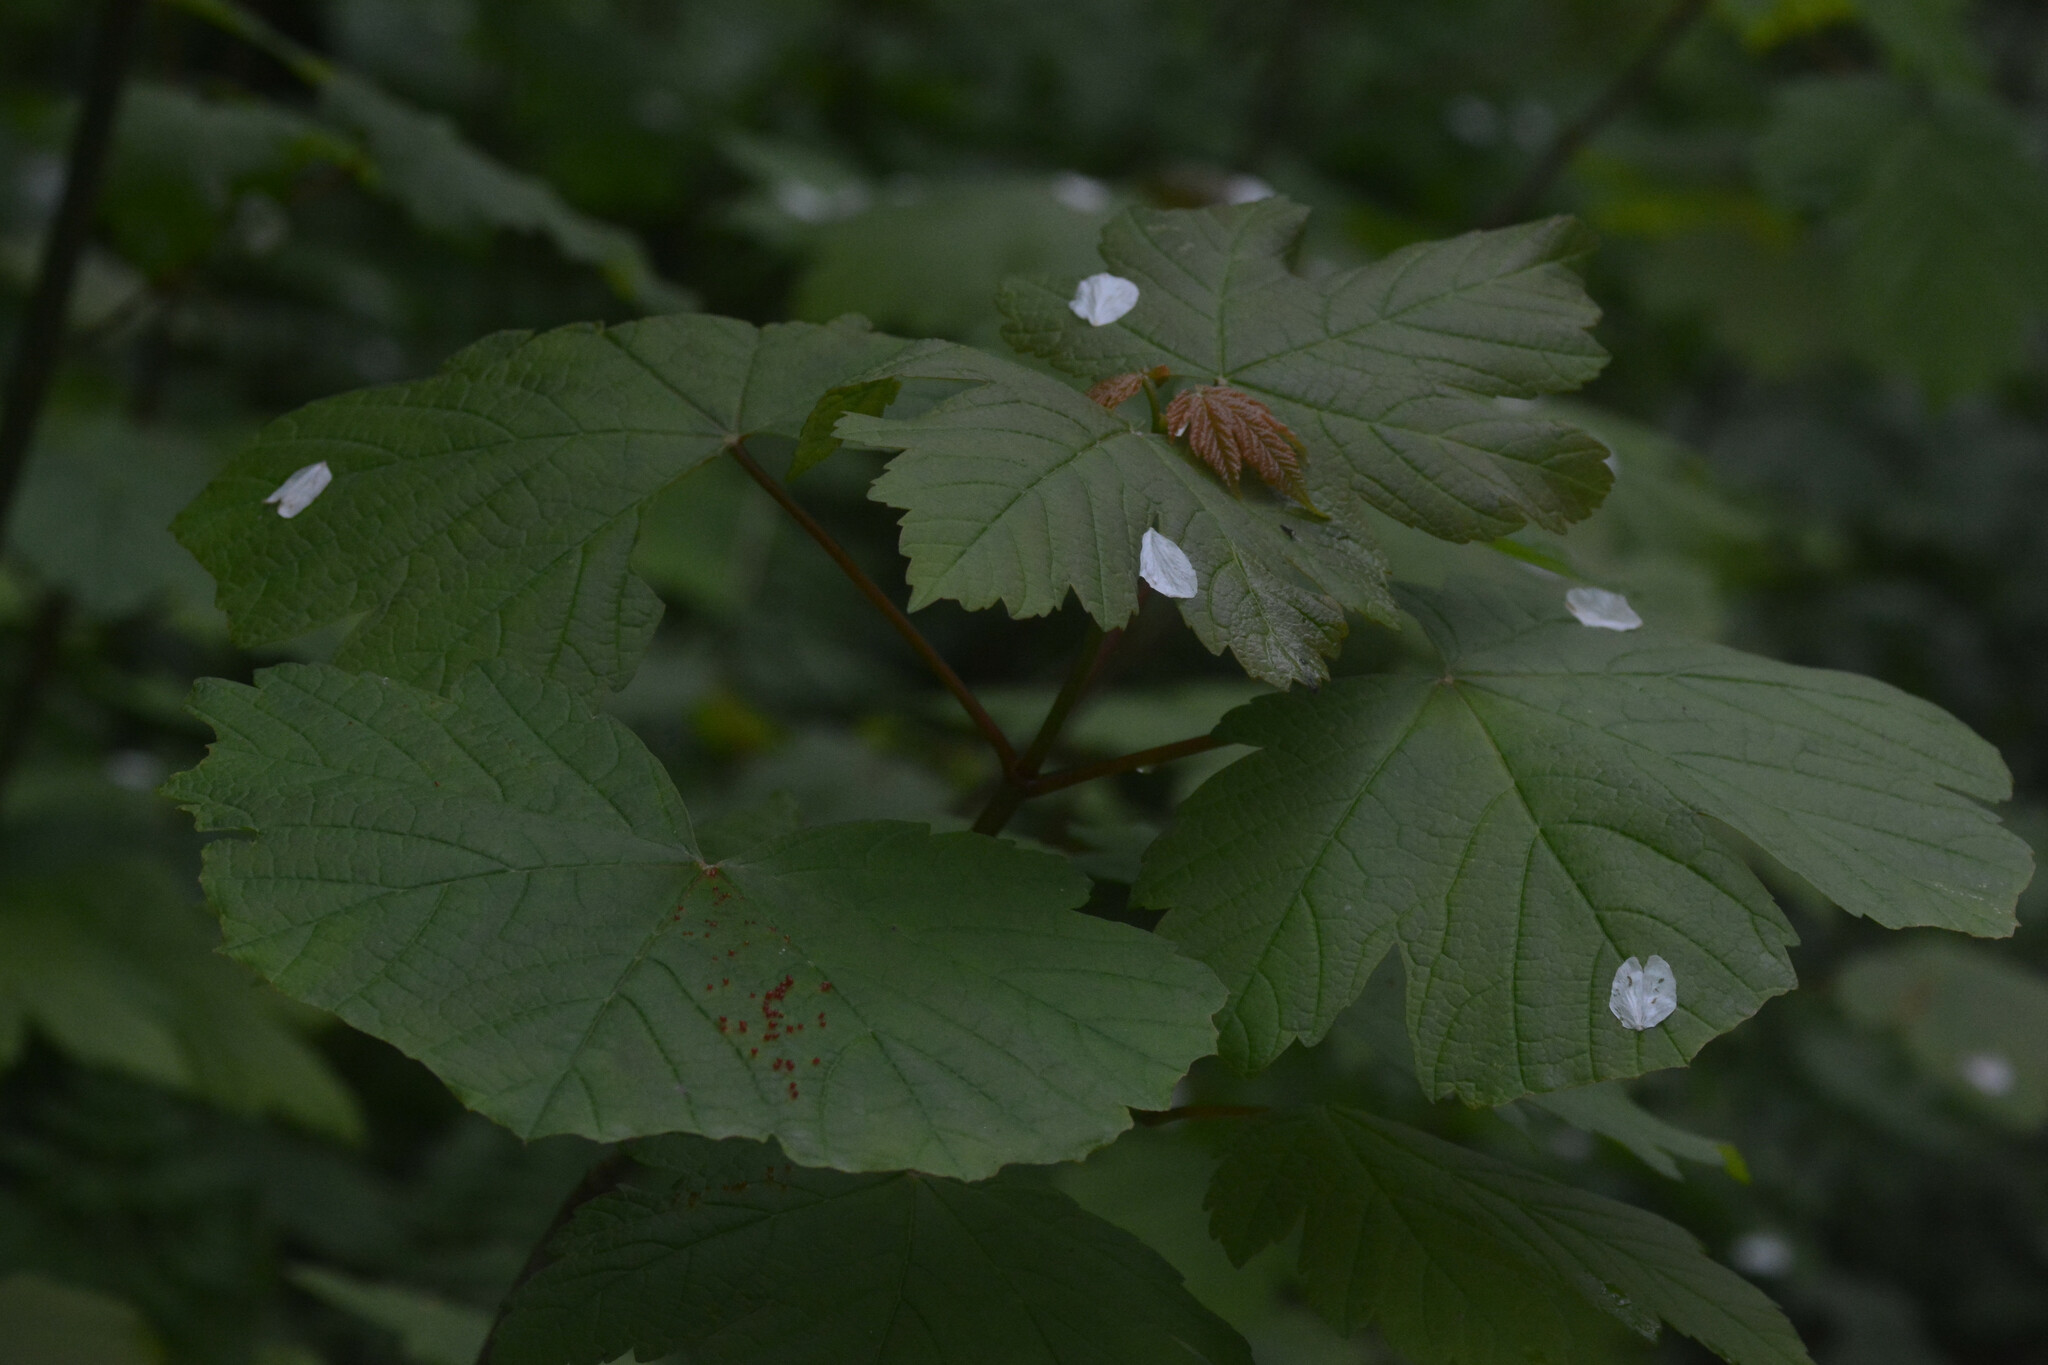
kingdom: Animalia
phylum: Arthropoda
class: Arachnida
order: Trombidiformes
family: Eriophyidae
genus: Aceria
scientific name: Aceria cephaloneus
